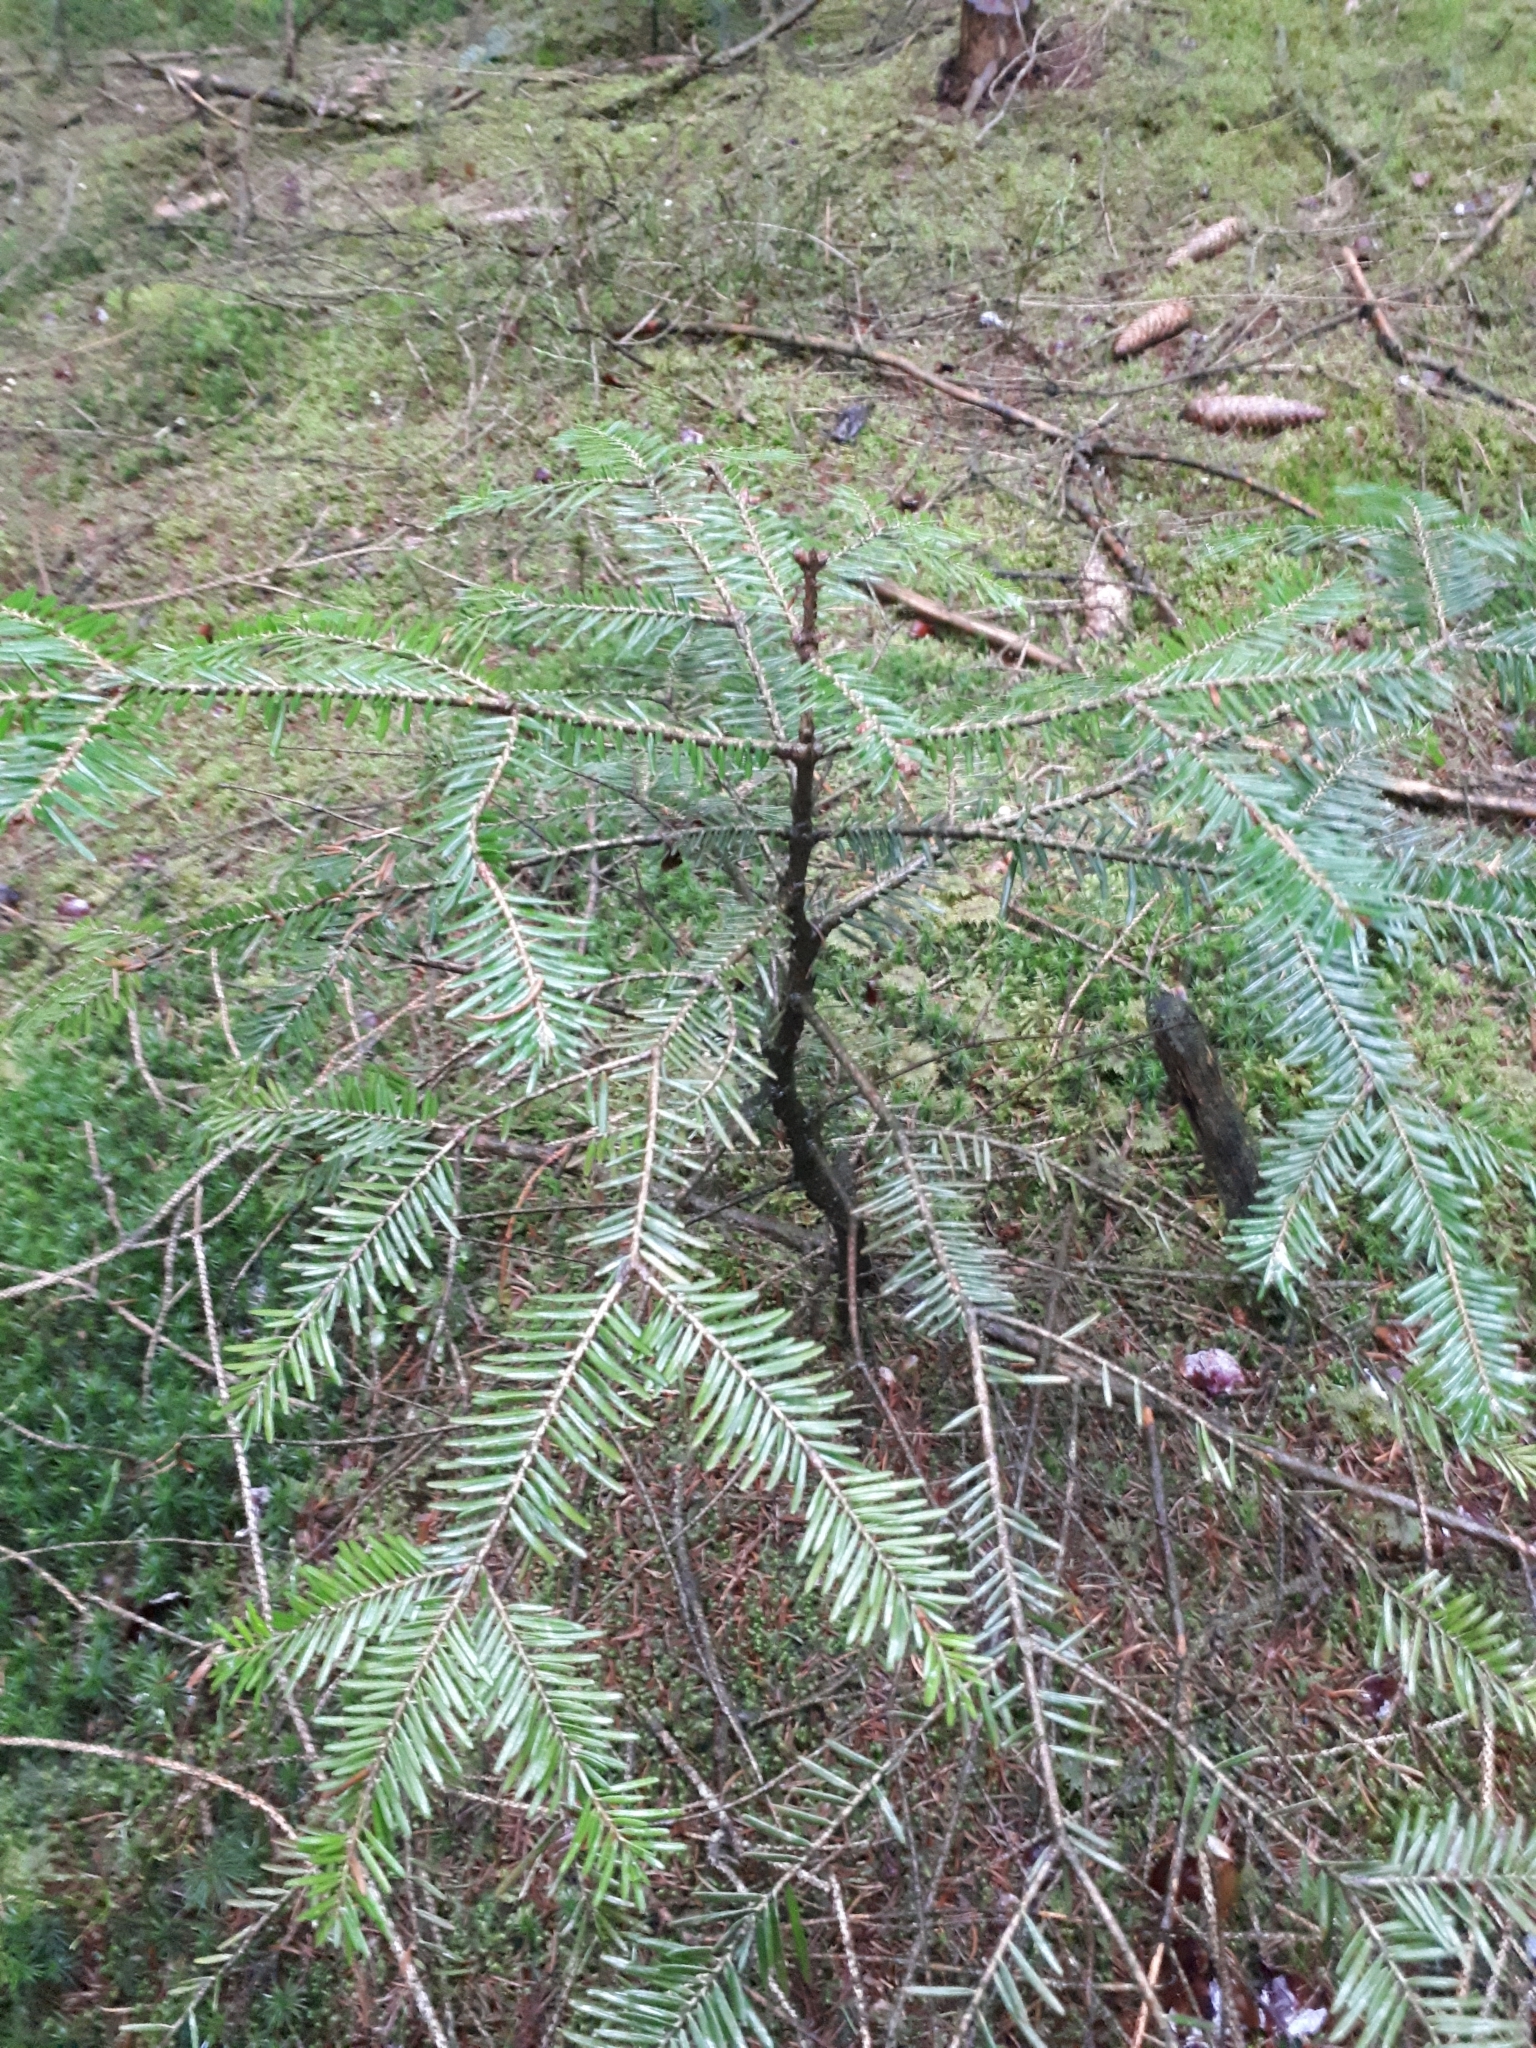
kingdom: Plantae
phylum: Tracheophyta
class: Pinopsida
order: Pinales
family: Pinaceae
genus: Abies
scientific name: Abies alba
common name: Silver fir
